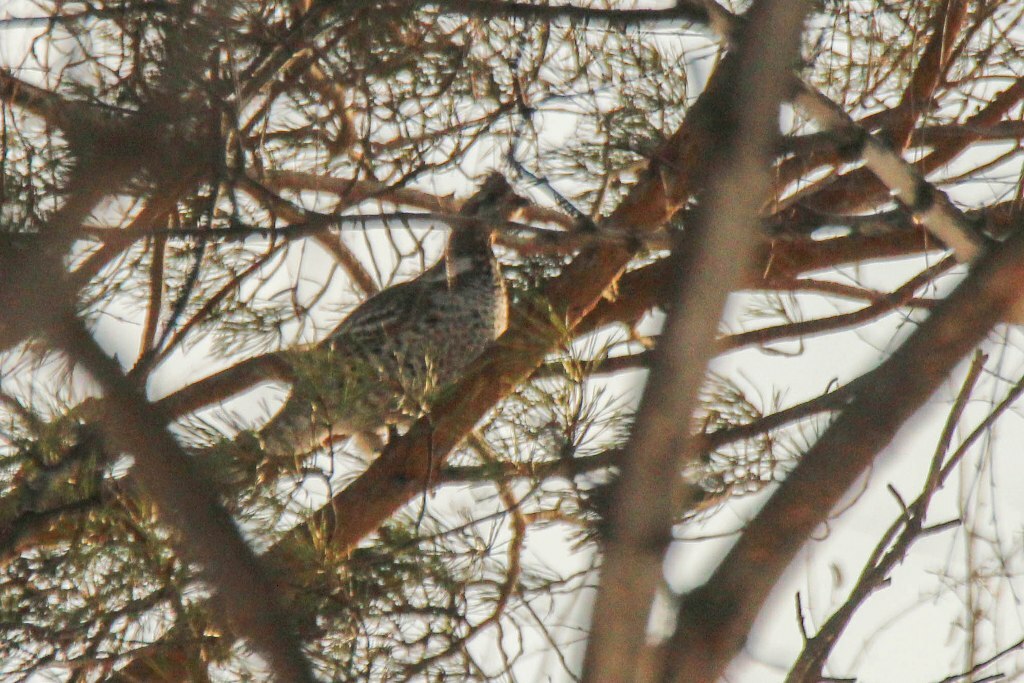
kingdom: Animalia
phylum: Chordata
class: Aves
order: Galliformes
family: Phasianidae
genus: Tetrastes
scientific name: Tetrastes bonasia
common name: Hazel grouse
